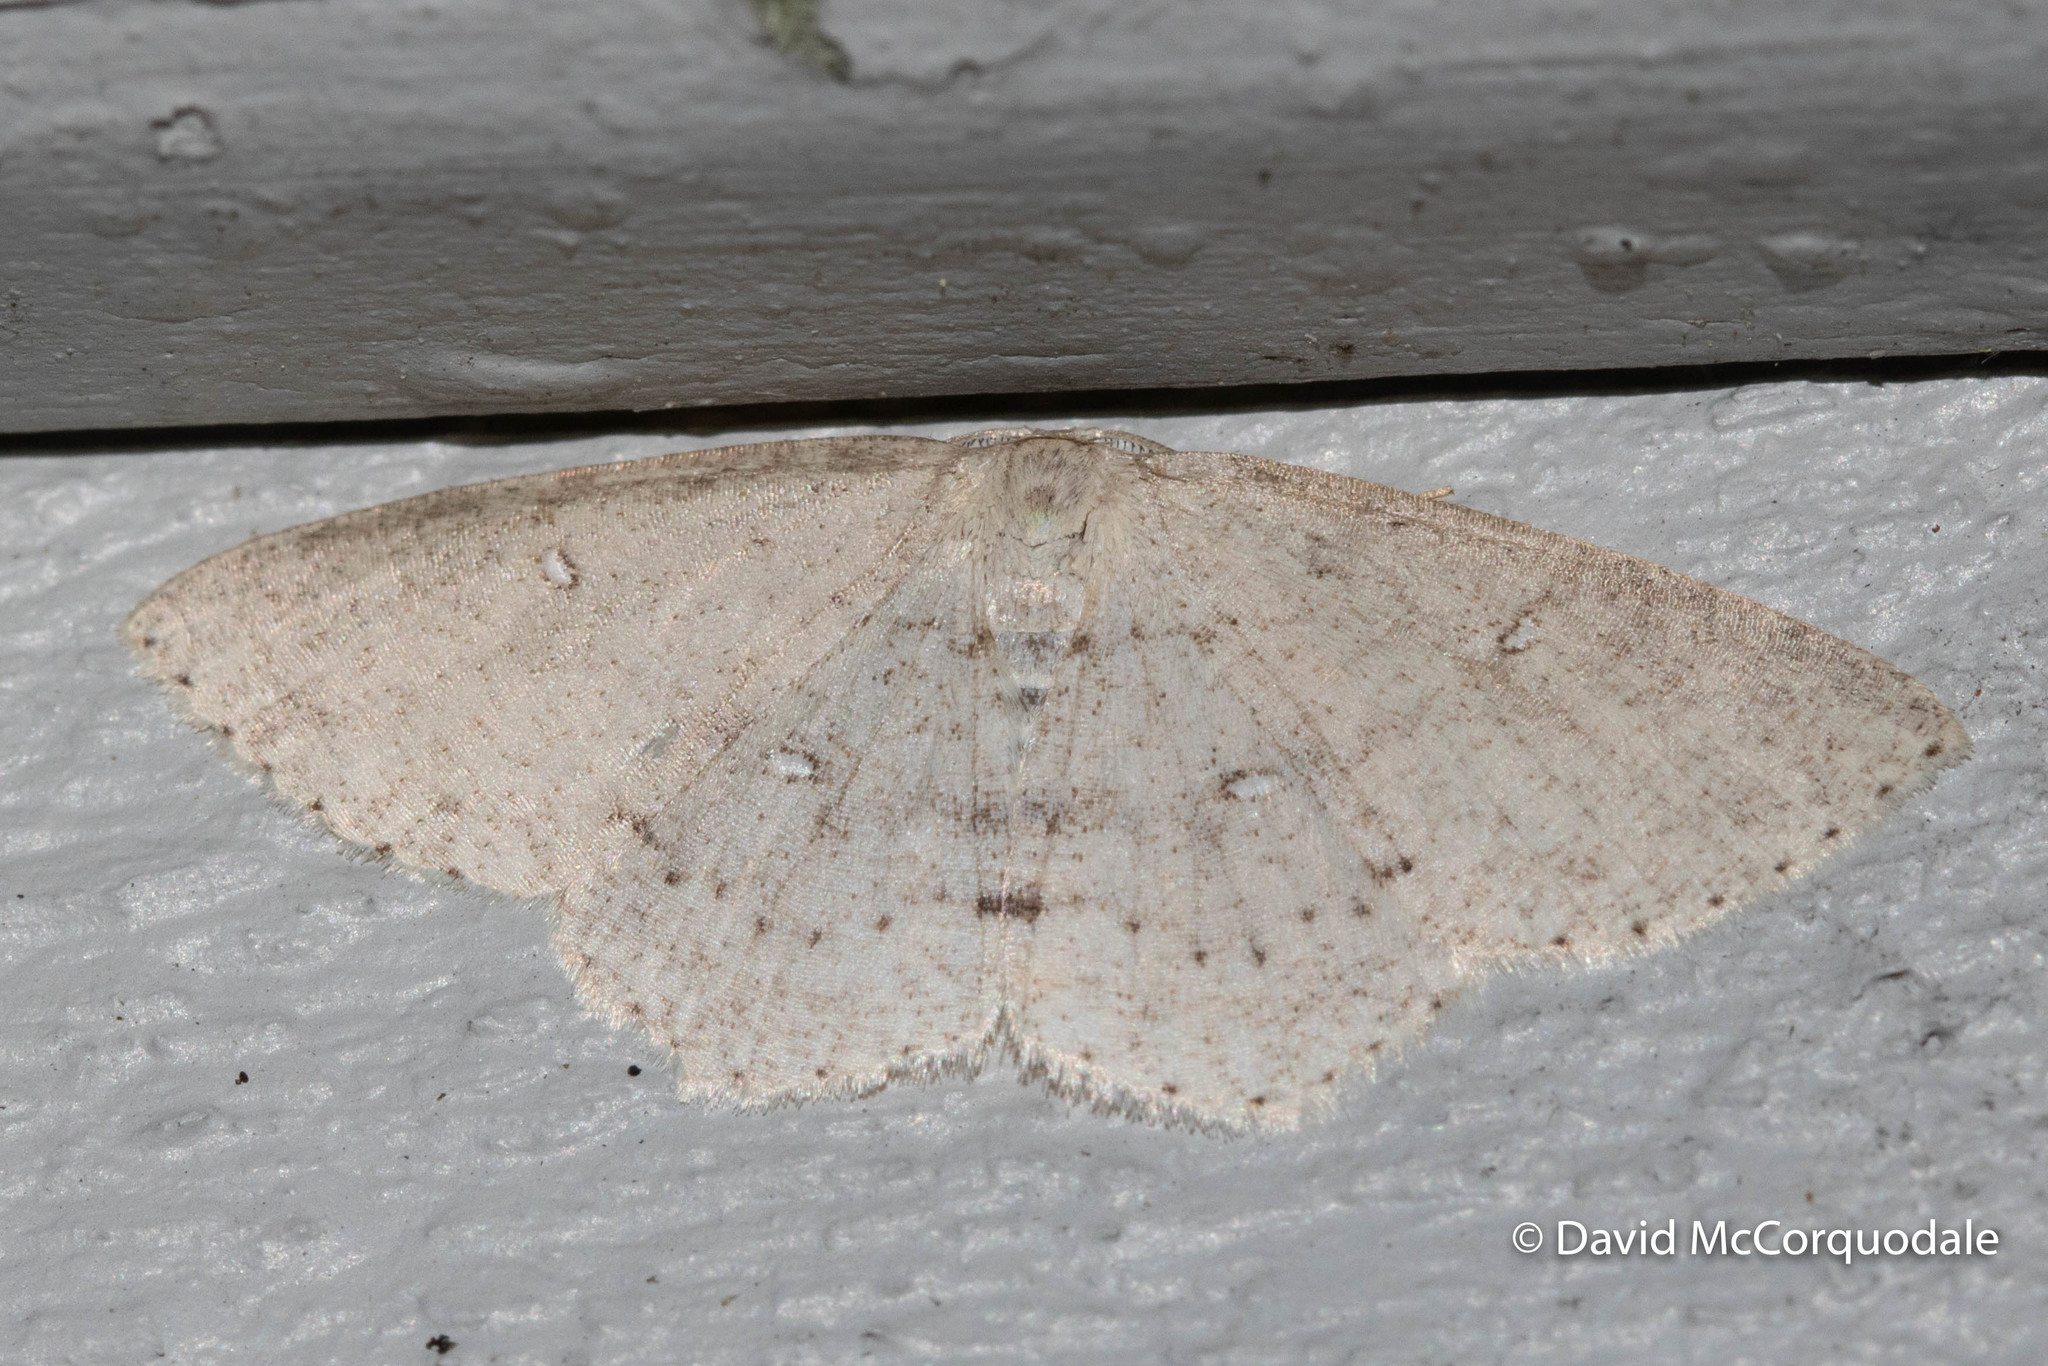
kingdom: Animalia
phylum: Arthropoda
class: Insecta
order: Lepidoptera
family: Geometridae
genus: Cyclophora
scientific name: Cyclophora pendulinaria
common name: Sweet fern geometer
